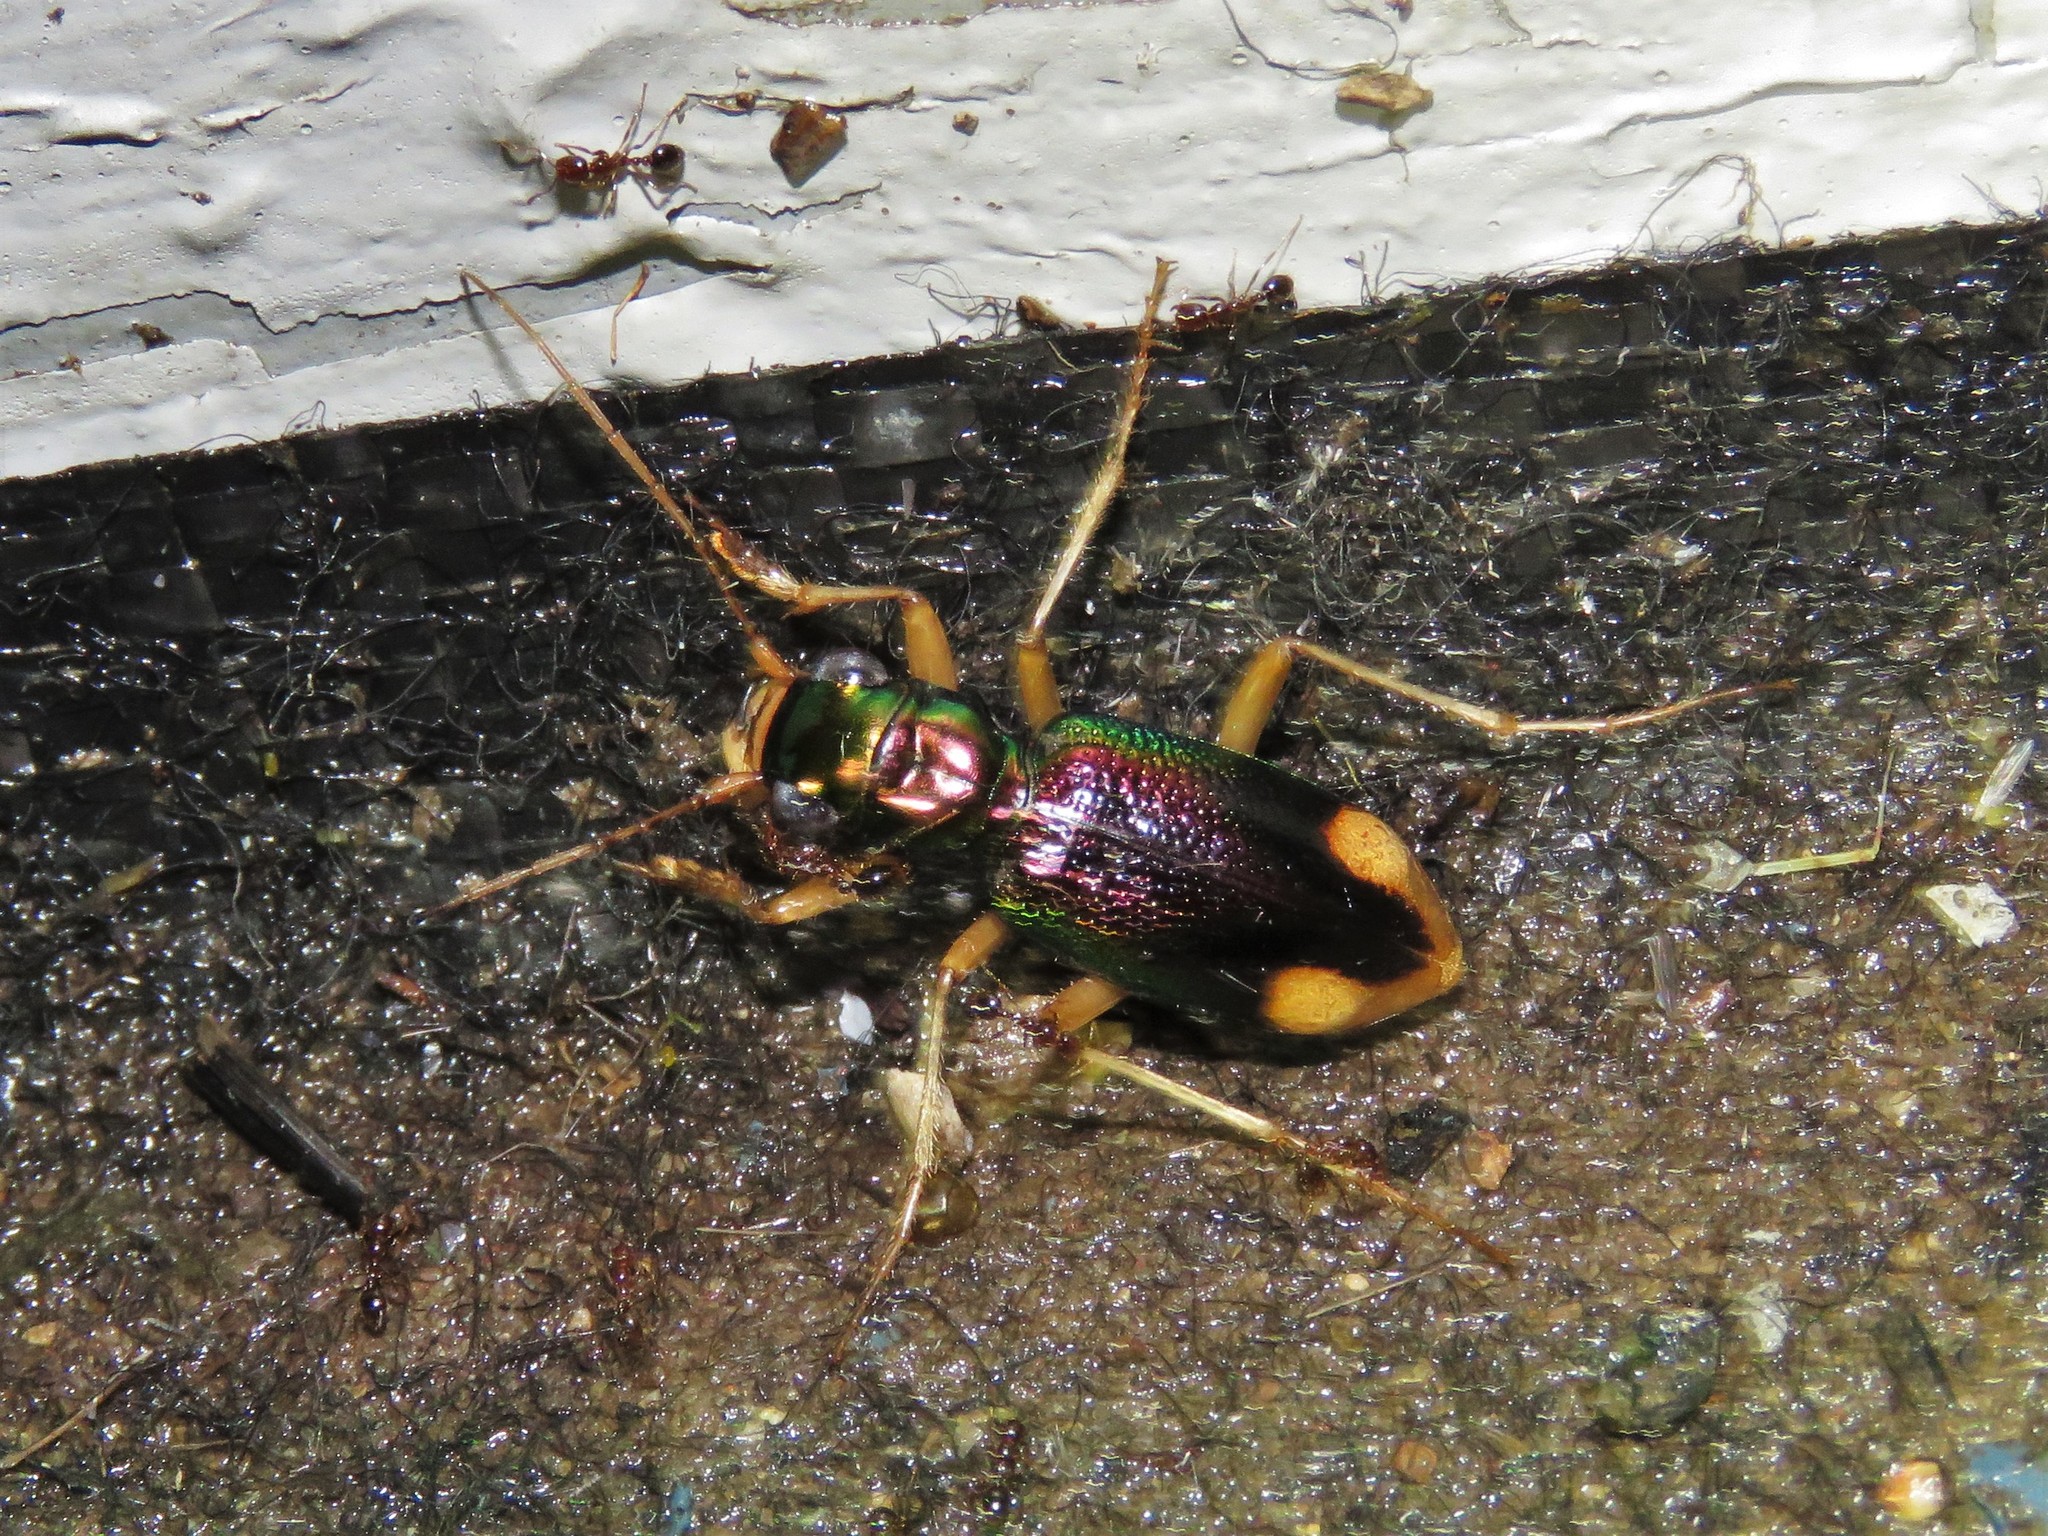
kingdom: Animalia
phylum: Arthropoda
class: Insecta
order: Coleoptera
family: Carabidae
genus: Tetracha
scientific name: Tetracha carolina
